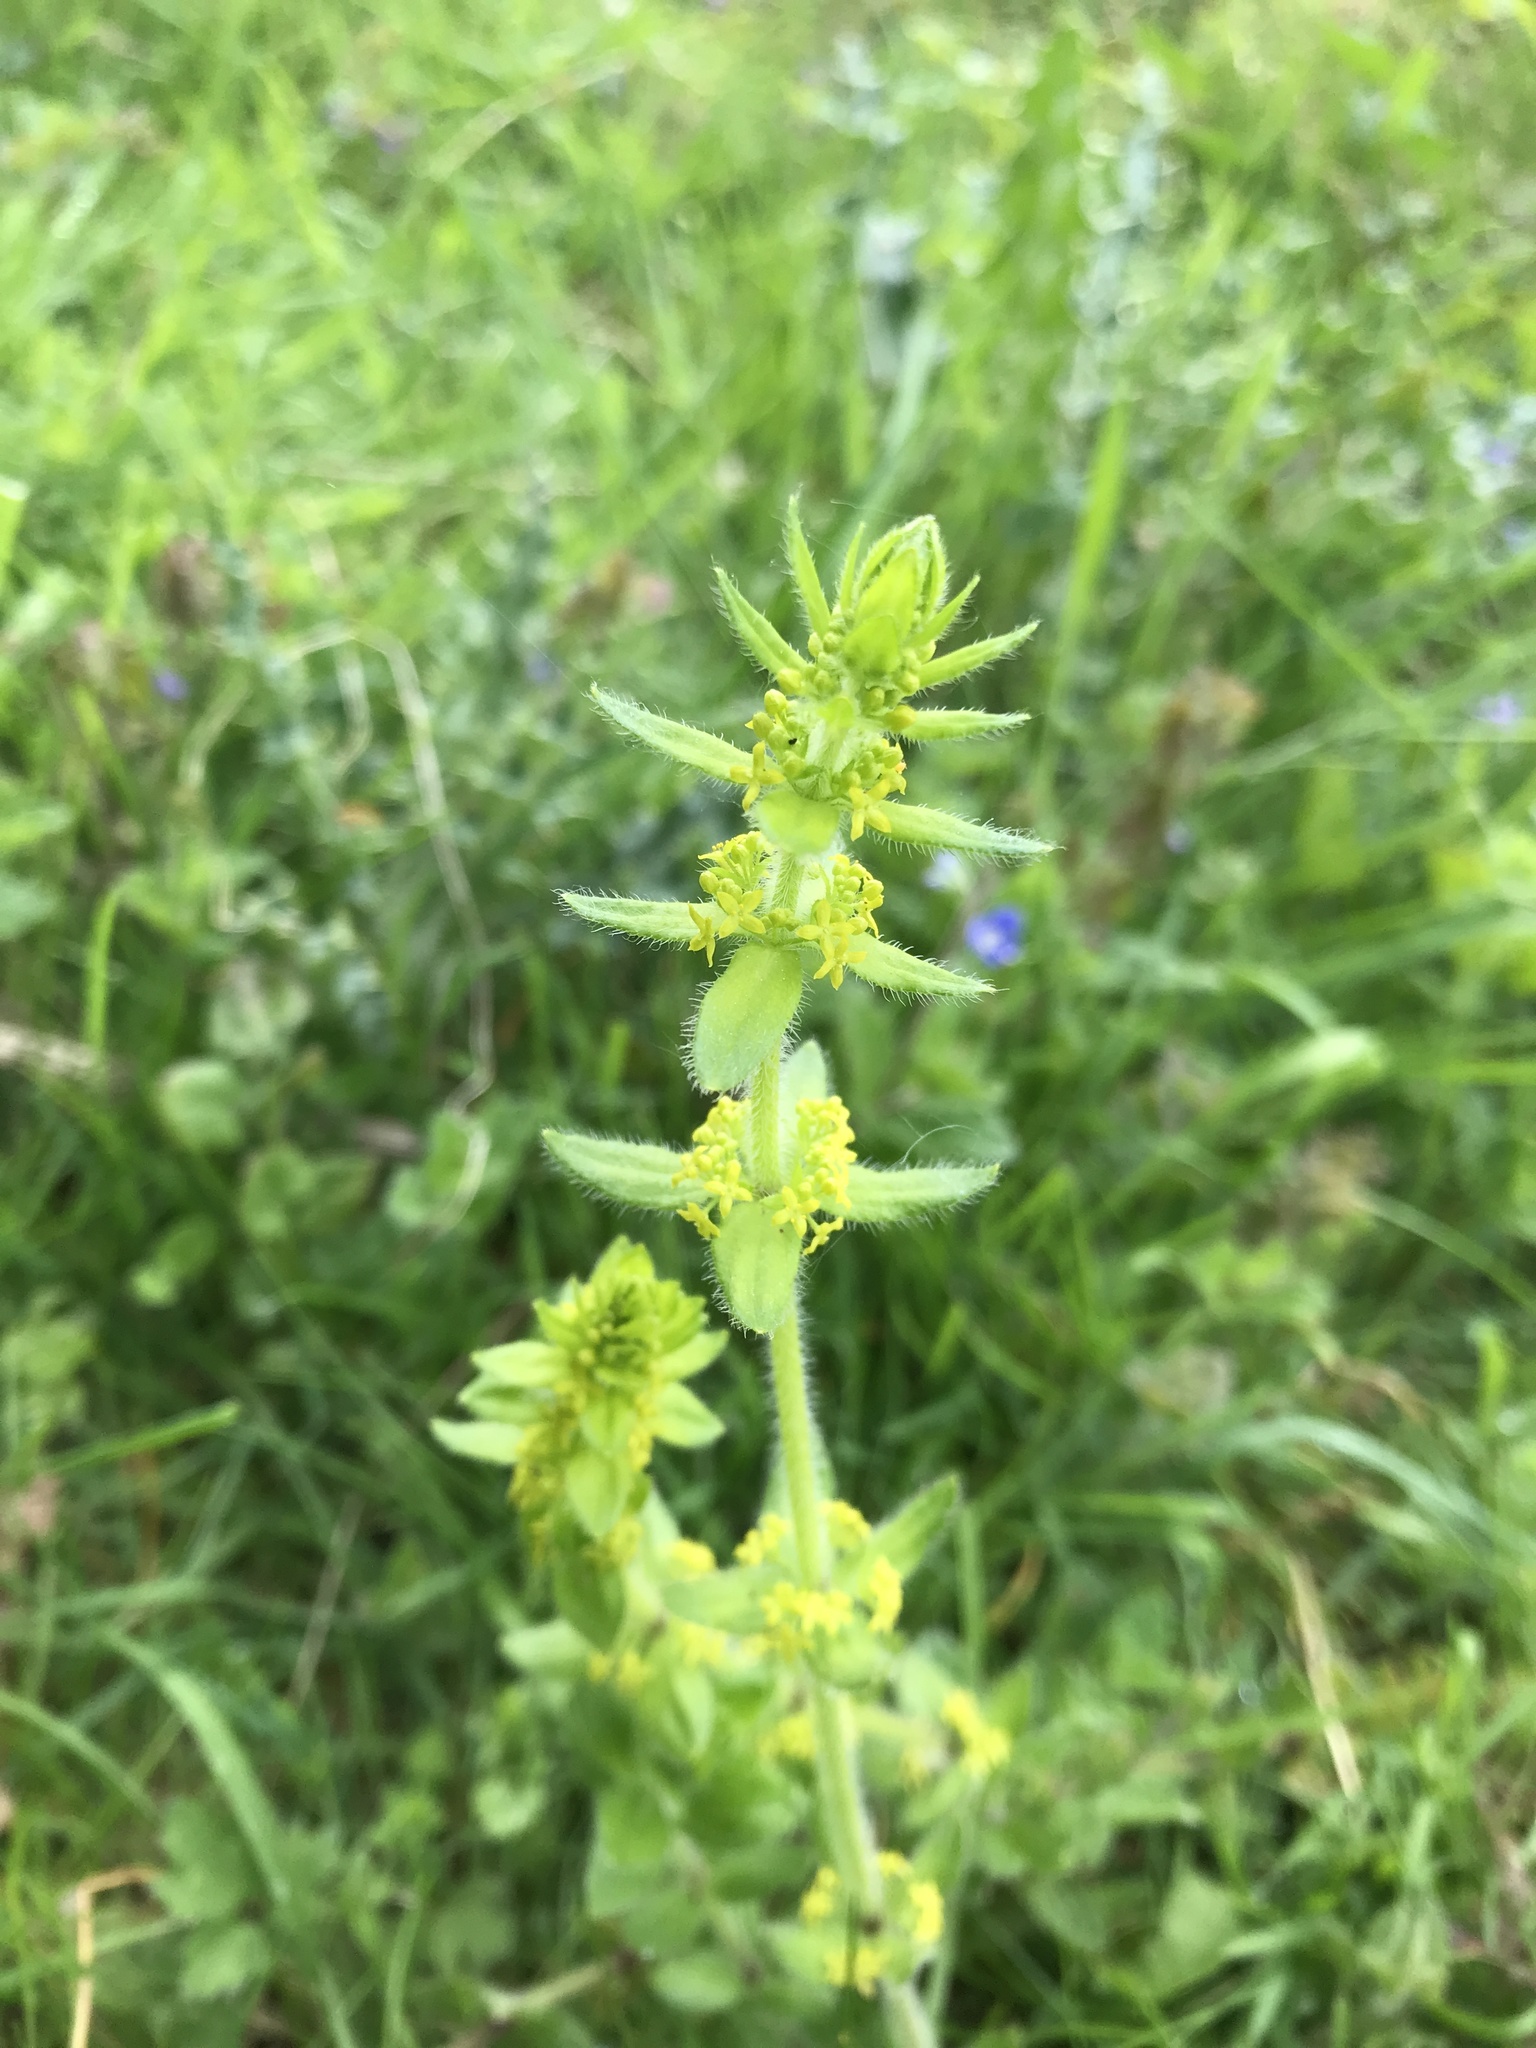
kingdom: Plantae
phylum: Tracheophyta
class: Magnoliopsida
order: Gentianales
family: Rubiaceae
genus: Cruciata
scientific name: Cruciata laevipes
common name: Crosswort
